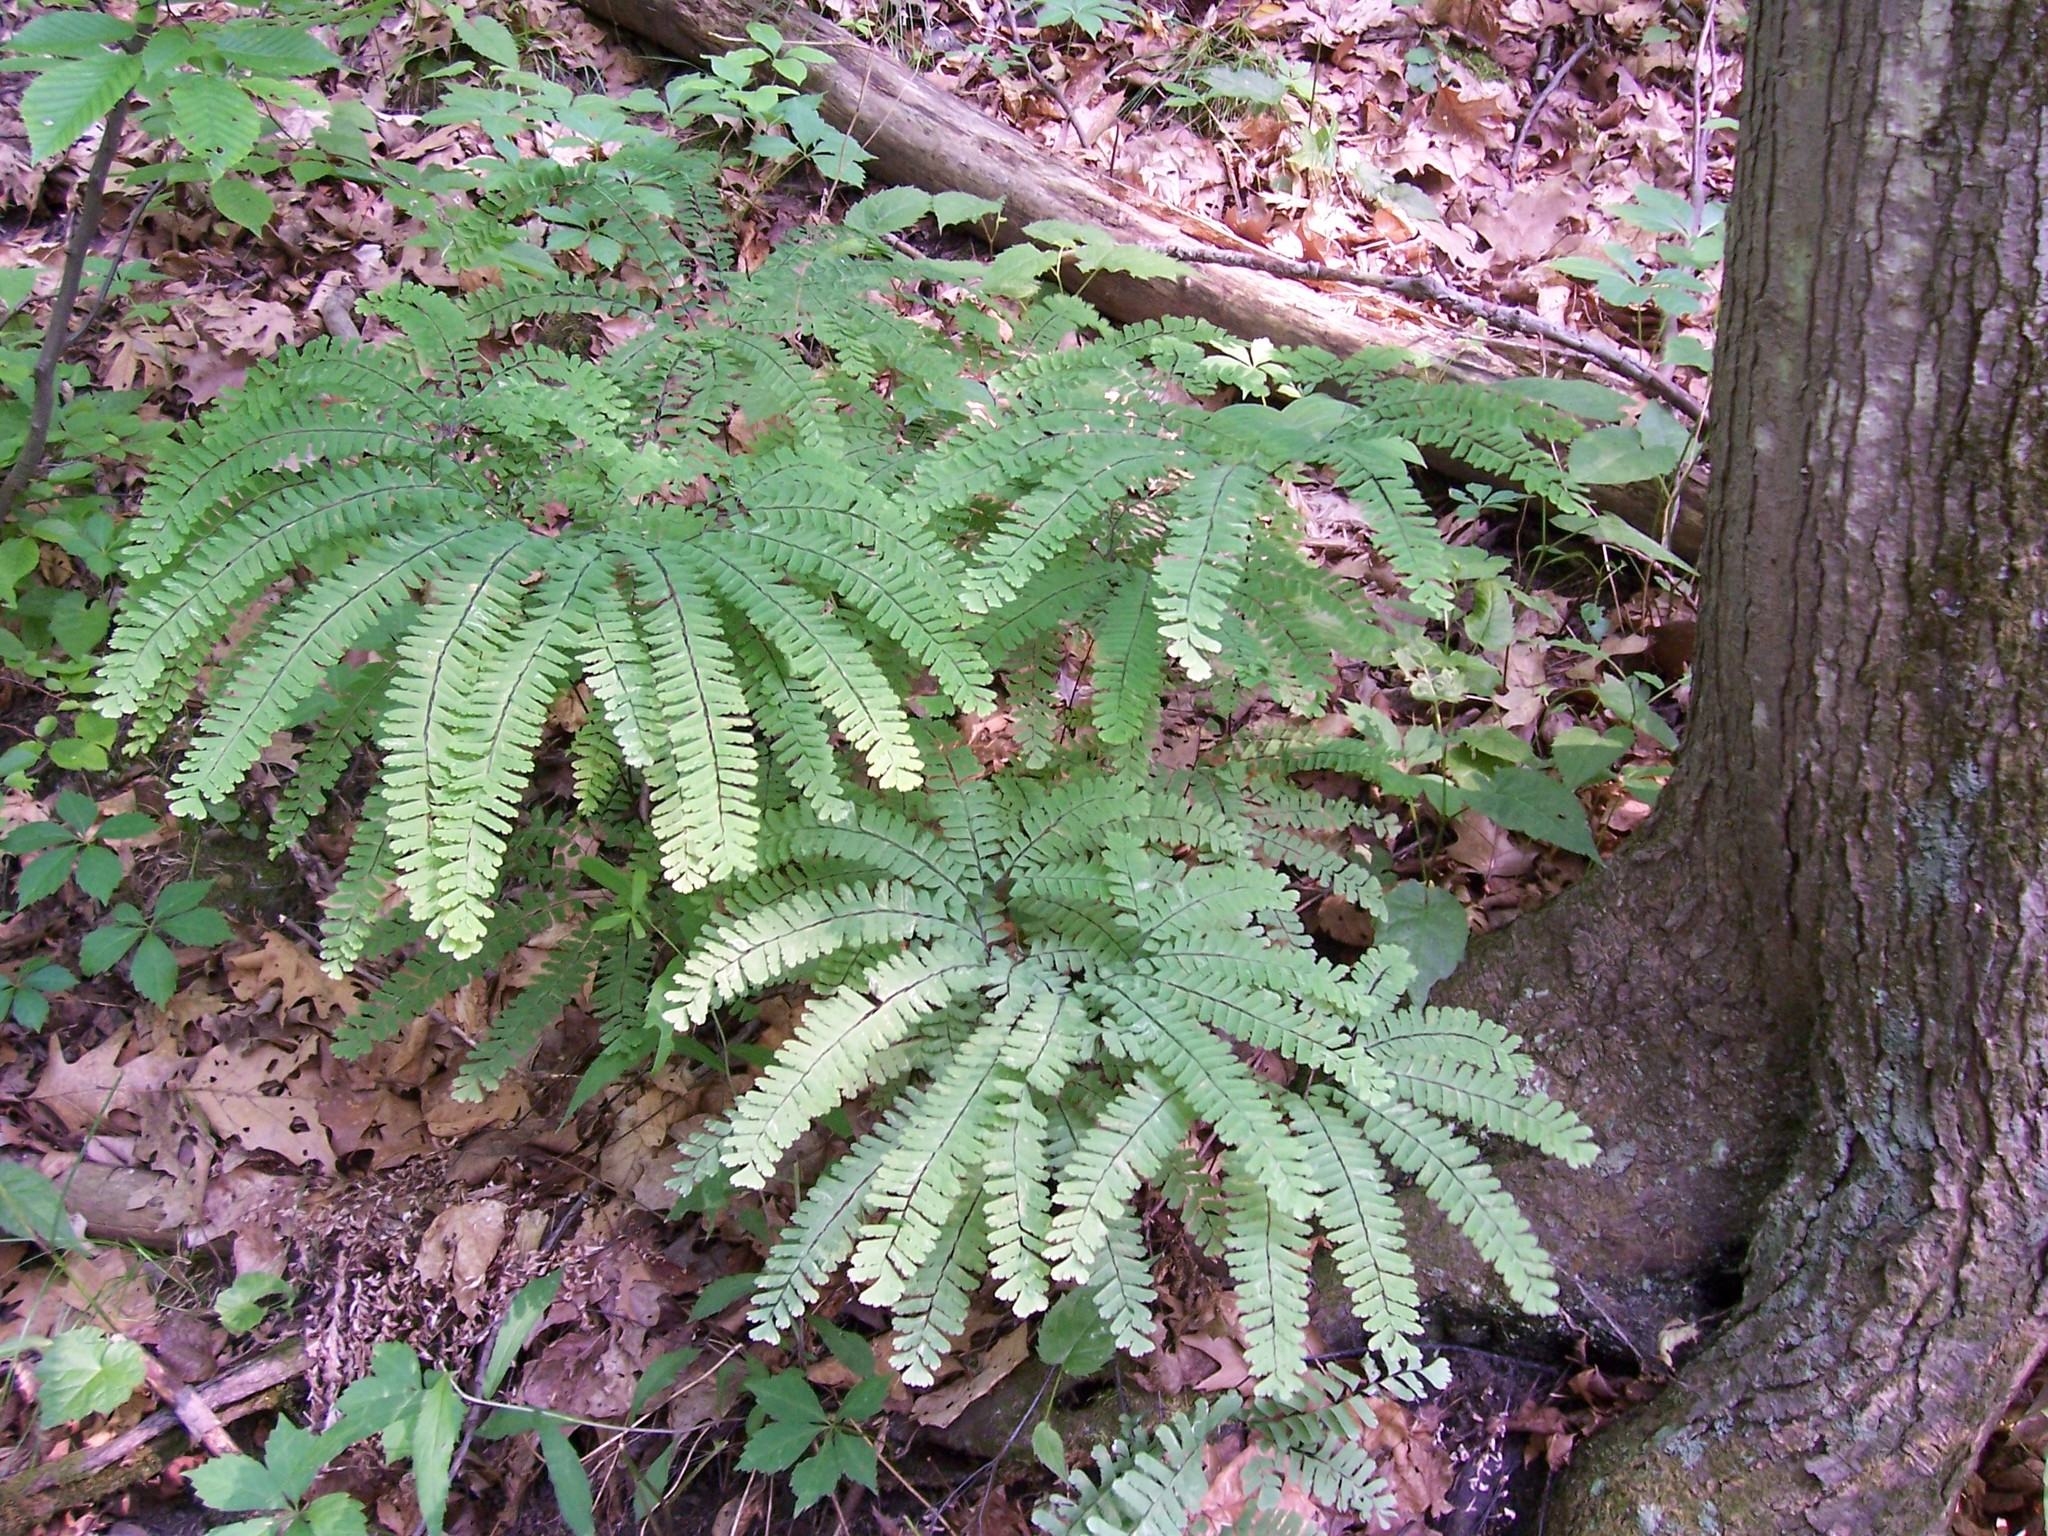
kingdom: Plantae
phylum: Tracheophyta
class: Polypodiopsida
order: Polypodiales
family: Pteridaceae
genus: Adiantum
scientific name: Adiantum pedatum
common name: Five-finger fern
